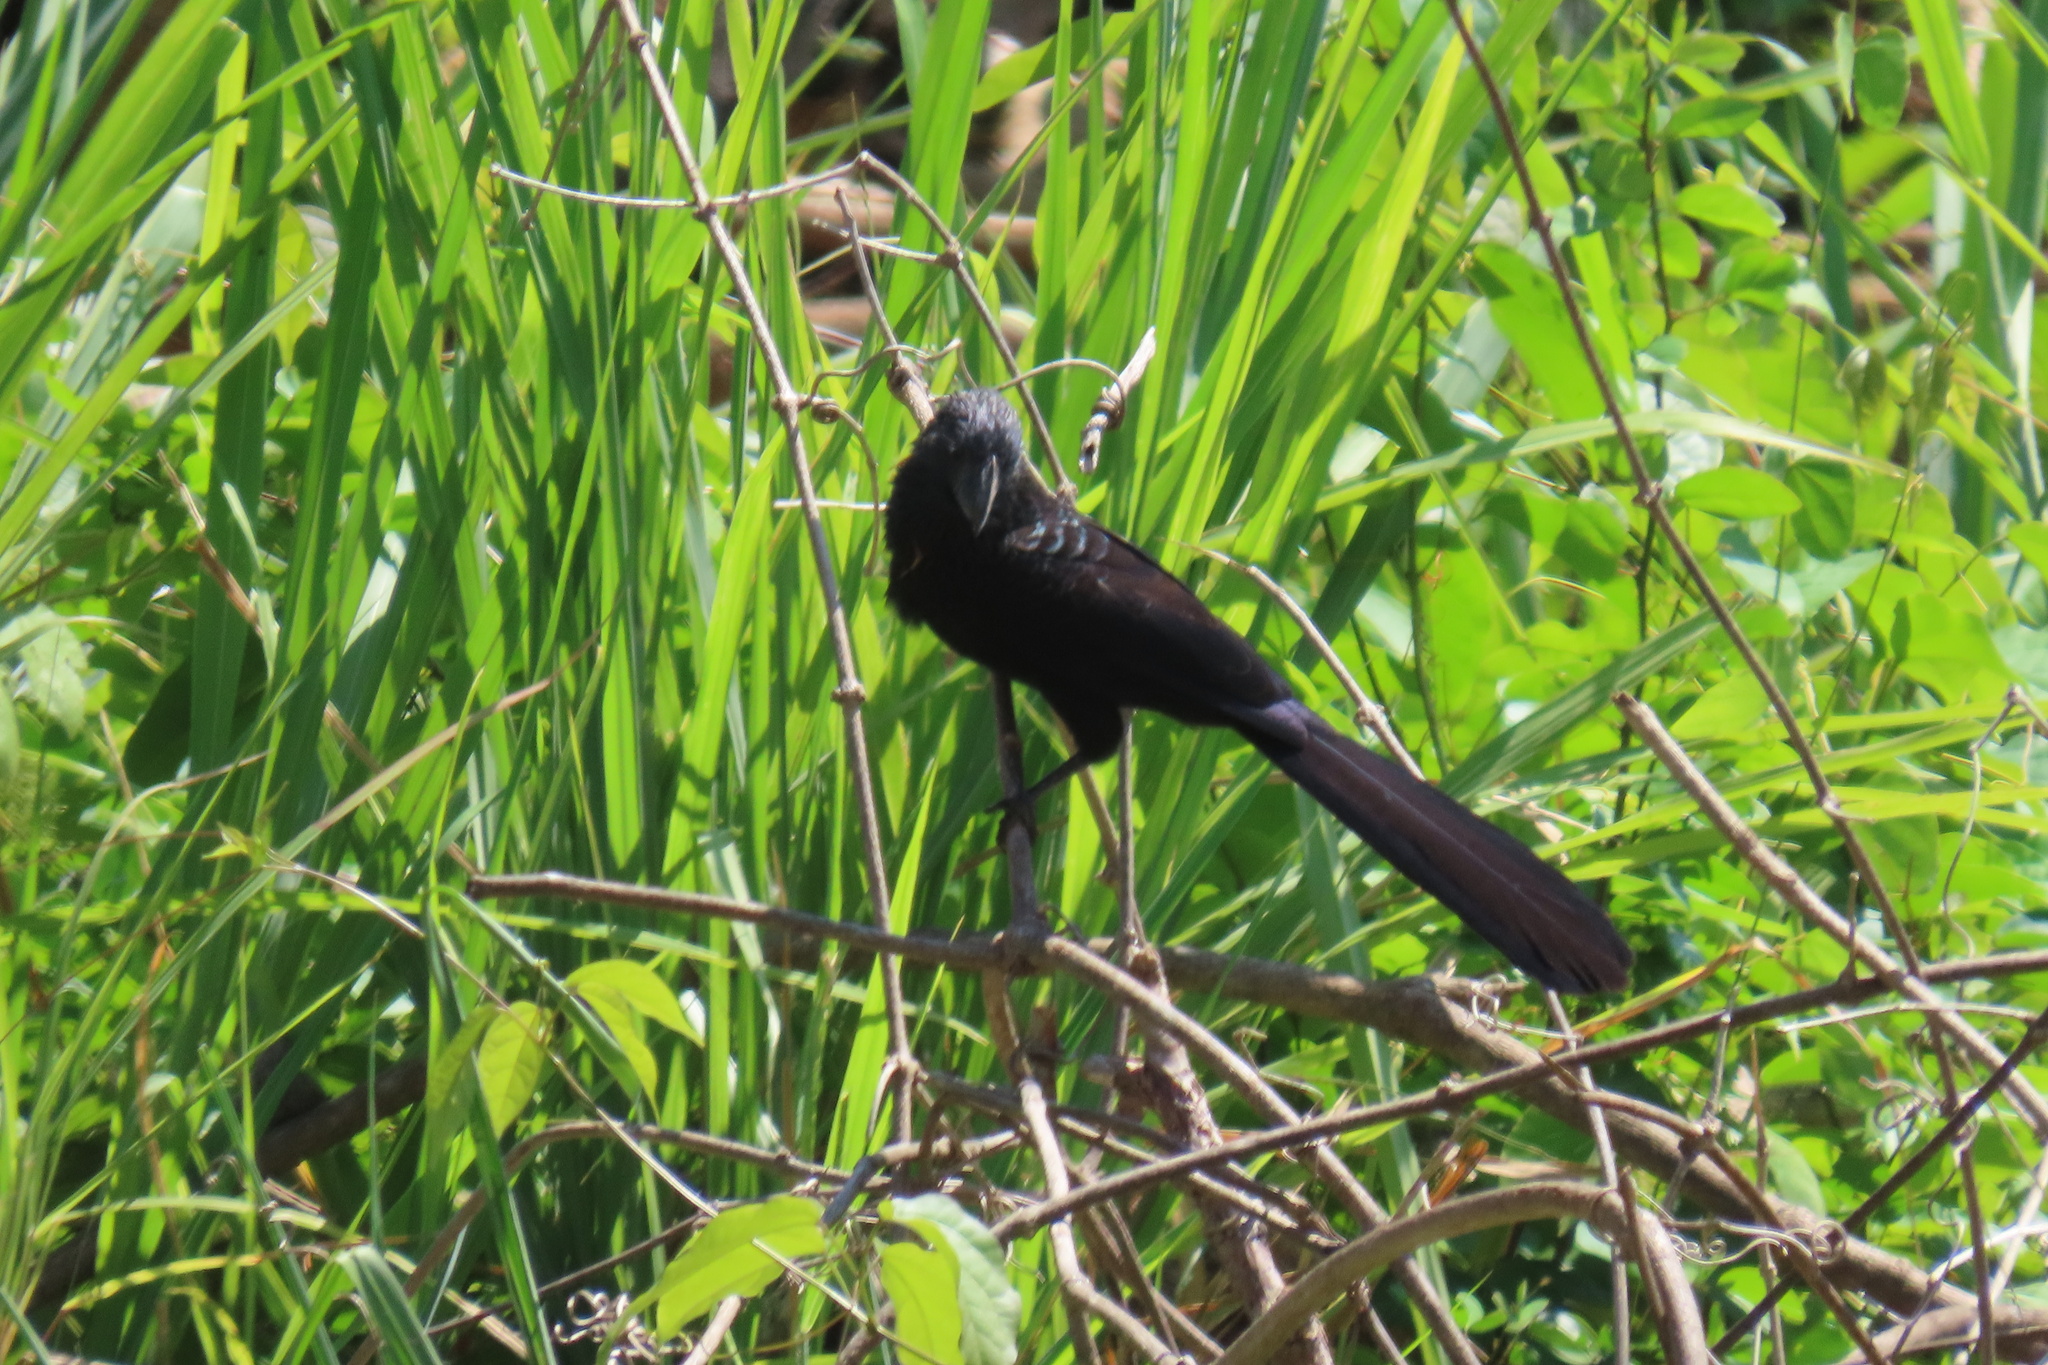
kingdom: Animalia
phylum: Chordata
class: Aves
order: Cuculiformes
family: Cuculidae
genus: Crotophaga
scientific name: Crotophaga sulcirostris
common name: Groove-billed ani
